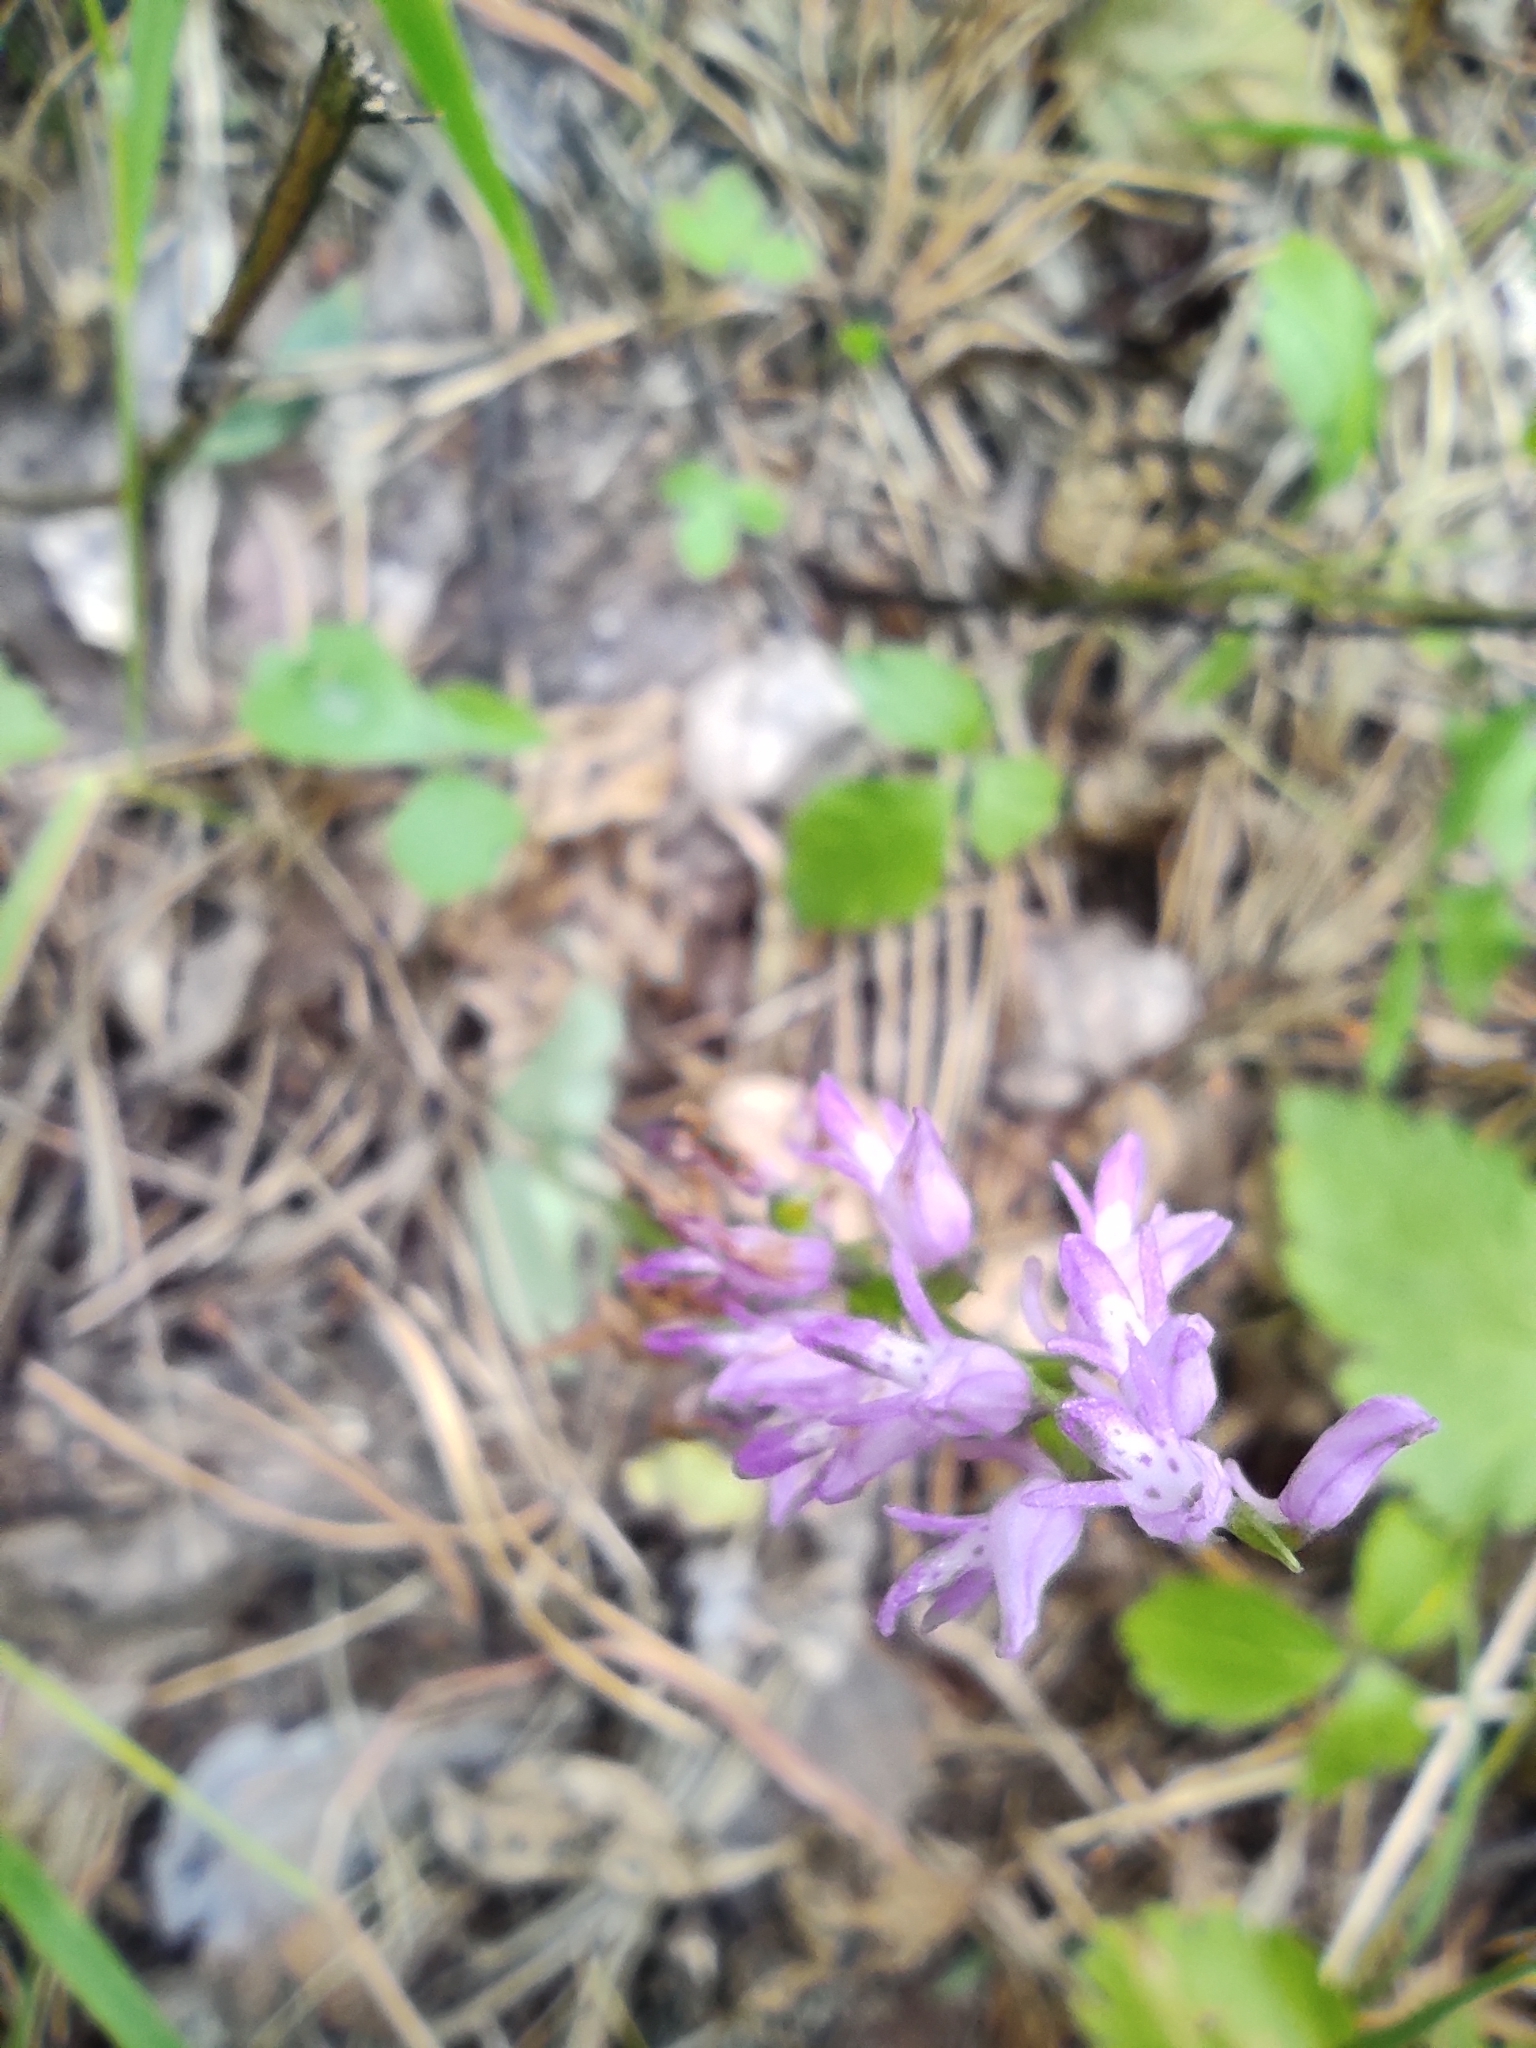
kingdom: Plantae
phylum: Tracheophyta
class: Liliopsida
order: Asparagales
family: Orchidaceae
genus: Hemipilia
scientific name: Hemipilia cucullata
